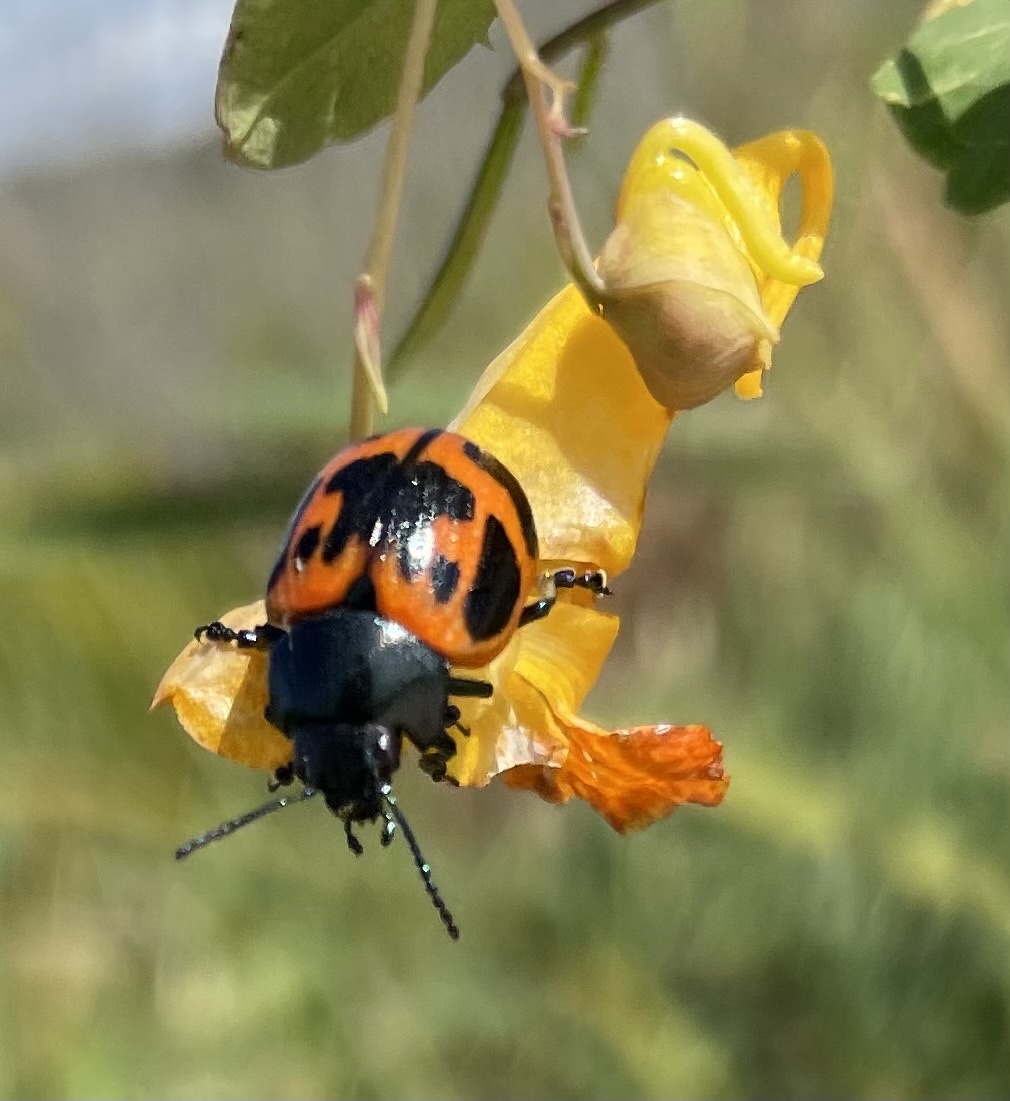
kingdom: Animalia
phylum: Arthropoda
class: Insecta
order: Coleoptera
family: Chrysomelidae
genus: Labidomera
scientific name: Labidomera clivicollis
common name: Swamp milkweed leaf beetle
